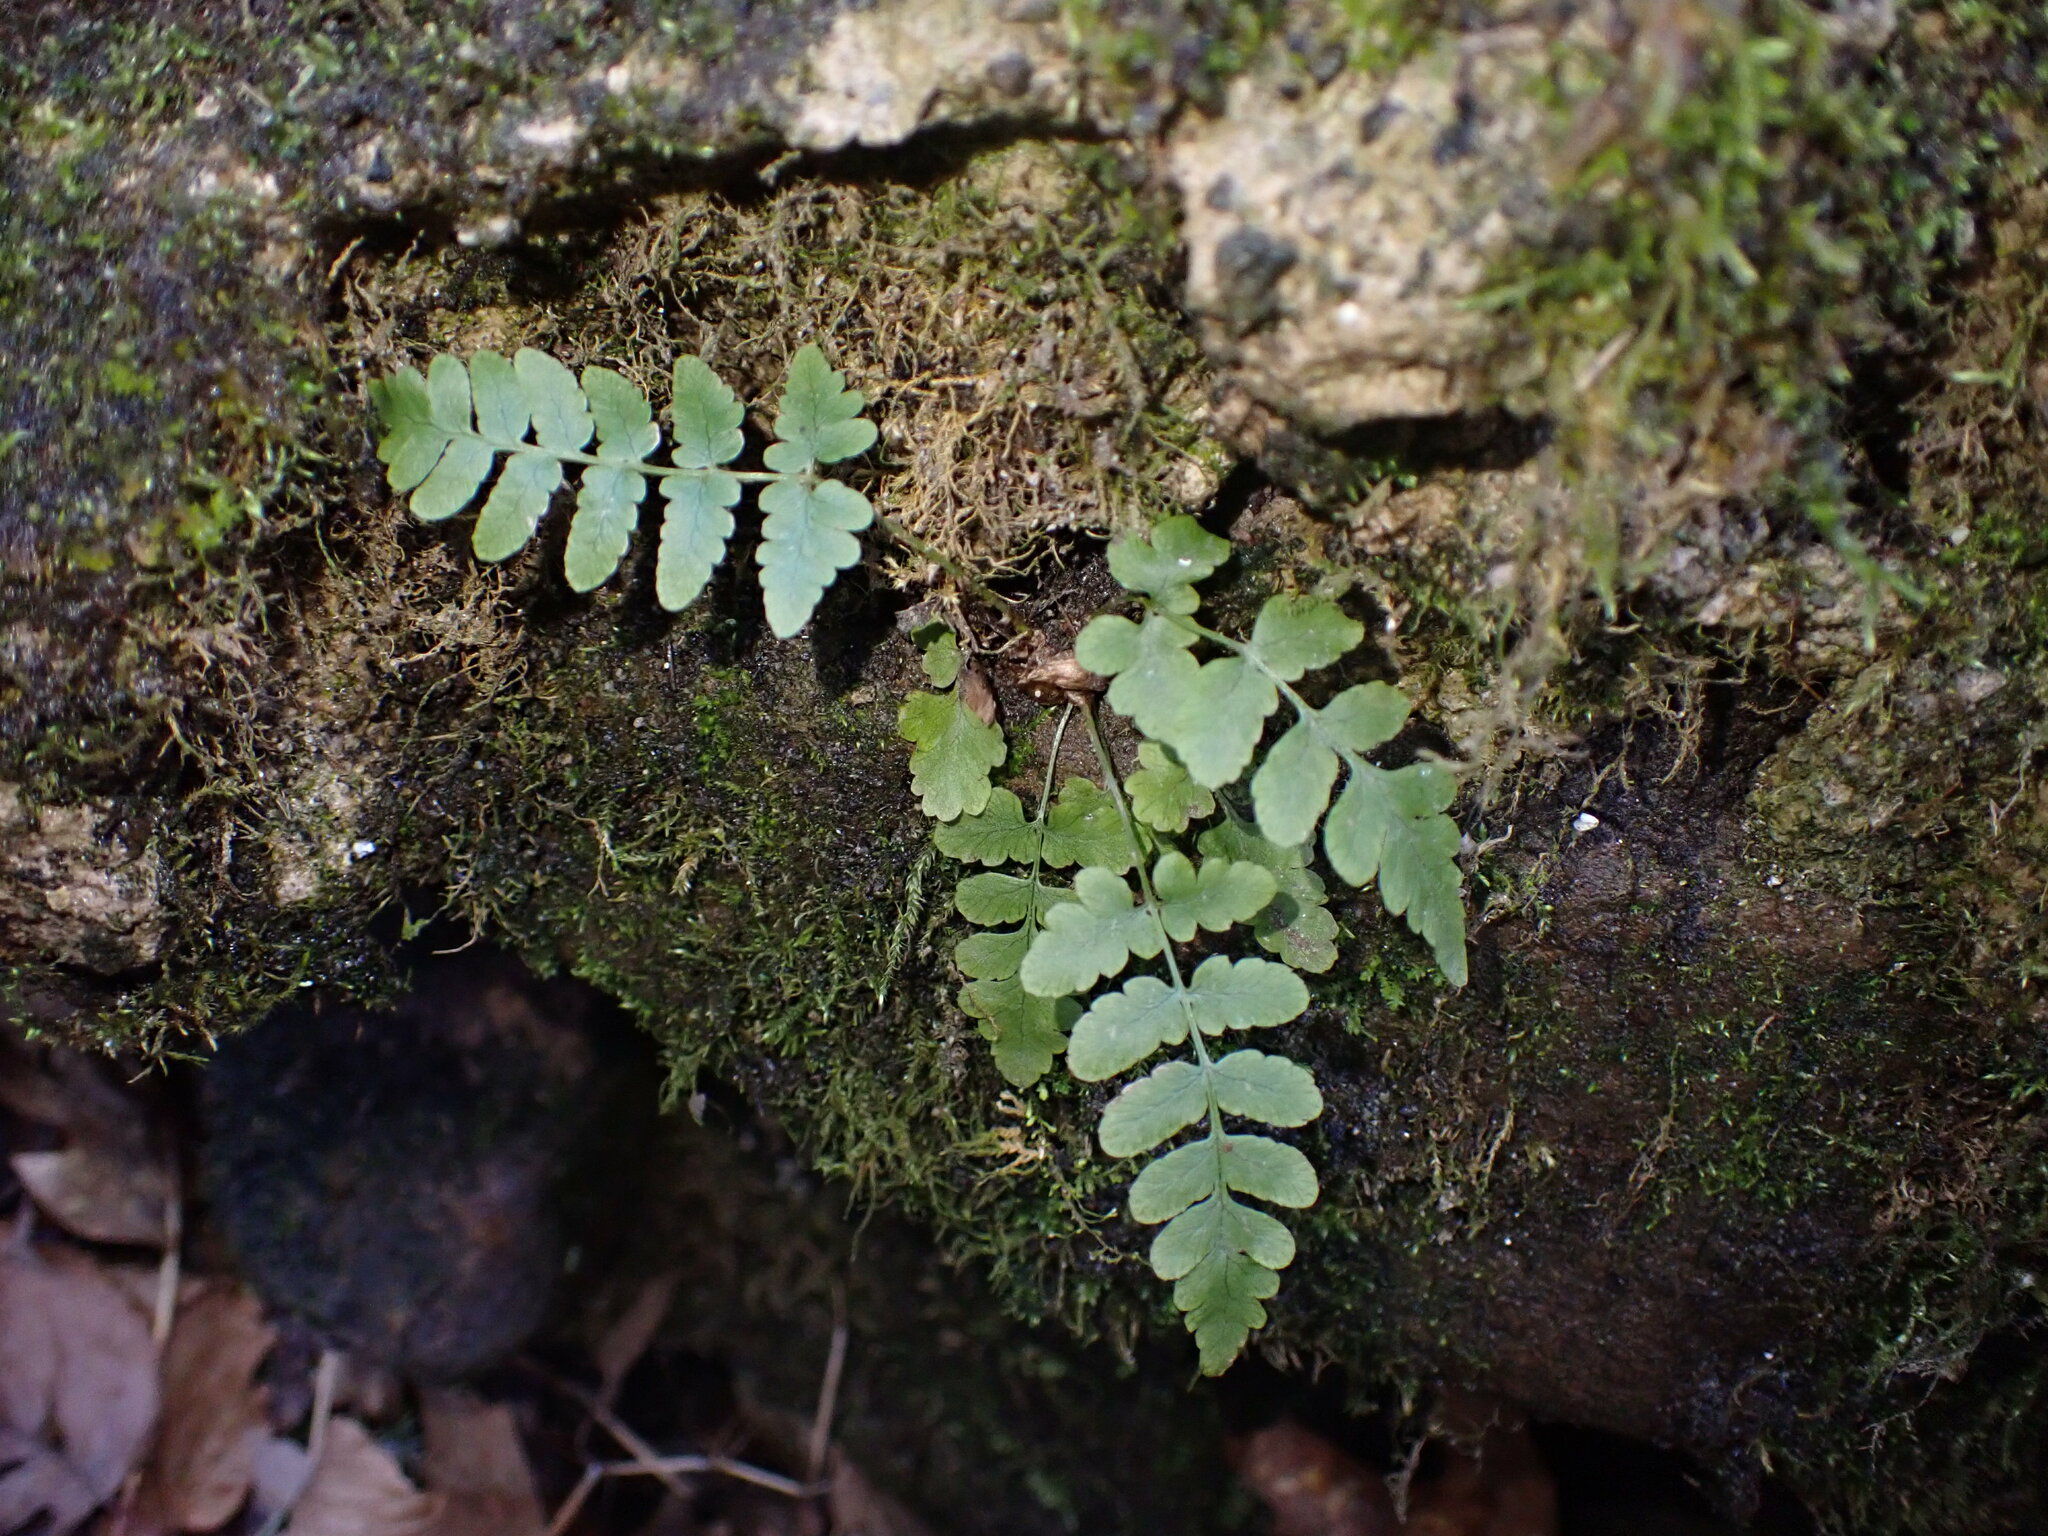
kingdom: Plantae
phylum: Tracheophyta
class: Polypodiopsida
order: Polypodiales
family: Dryopteridaceae
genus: Dryopteris
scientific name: Dryopteris marginalis
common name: Marginal wood fern
